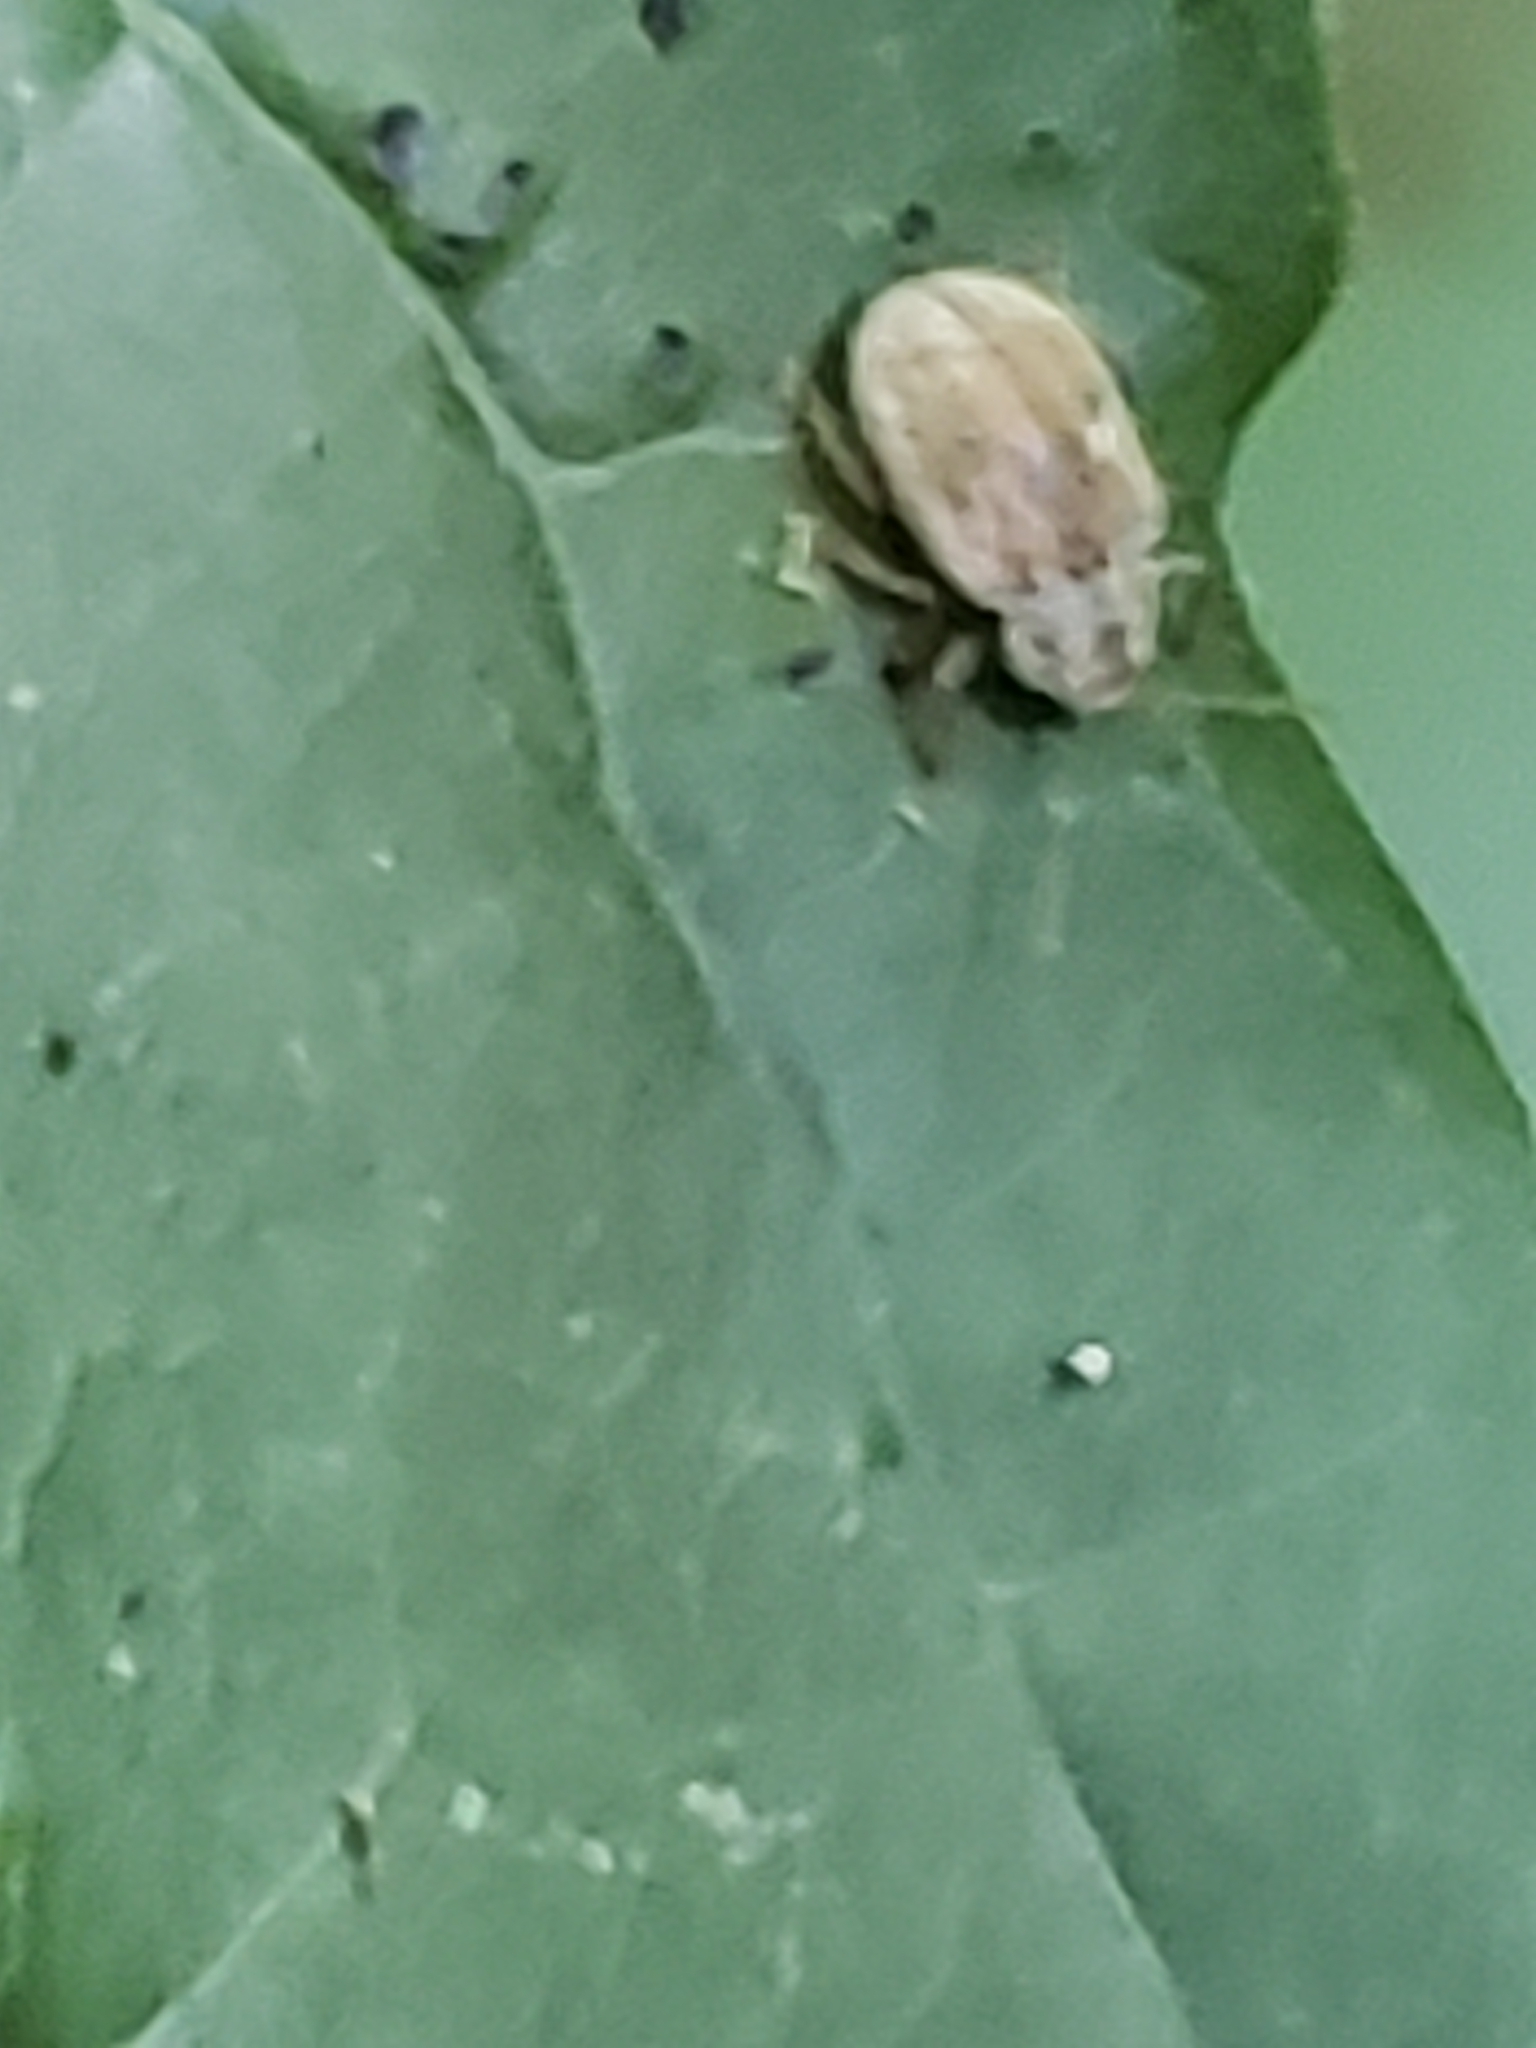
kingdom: Animalia
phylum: Arthropoda
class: Insecta
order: Coleoptera
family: Chrysomelidae
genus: Demotina
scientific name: Demotina modesta
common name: Leaf beetle
